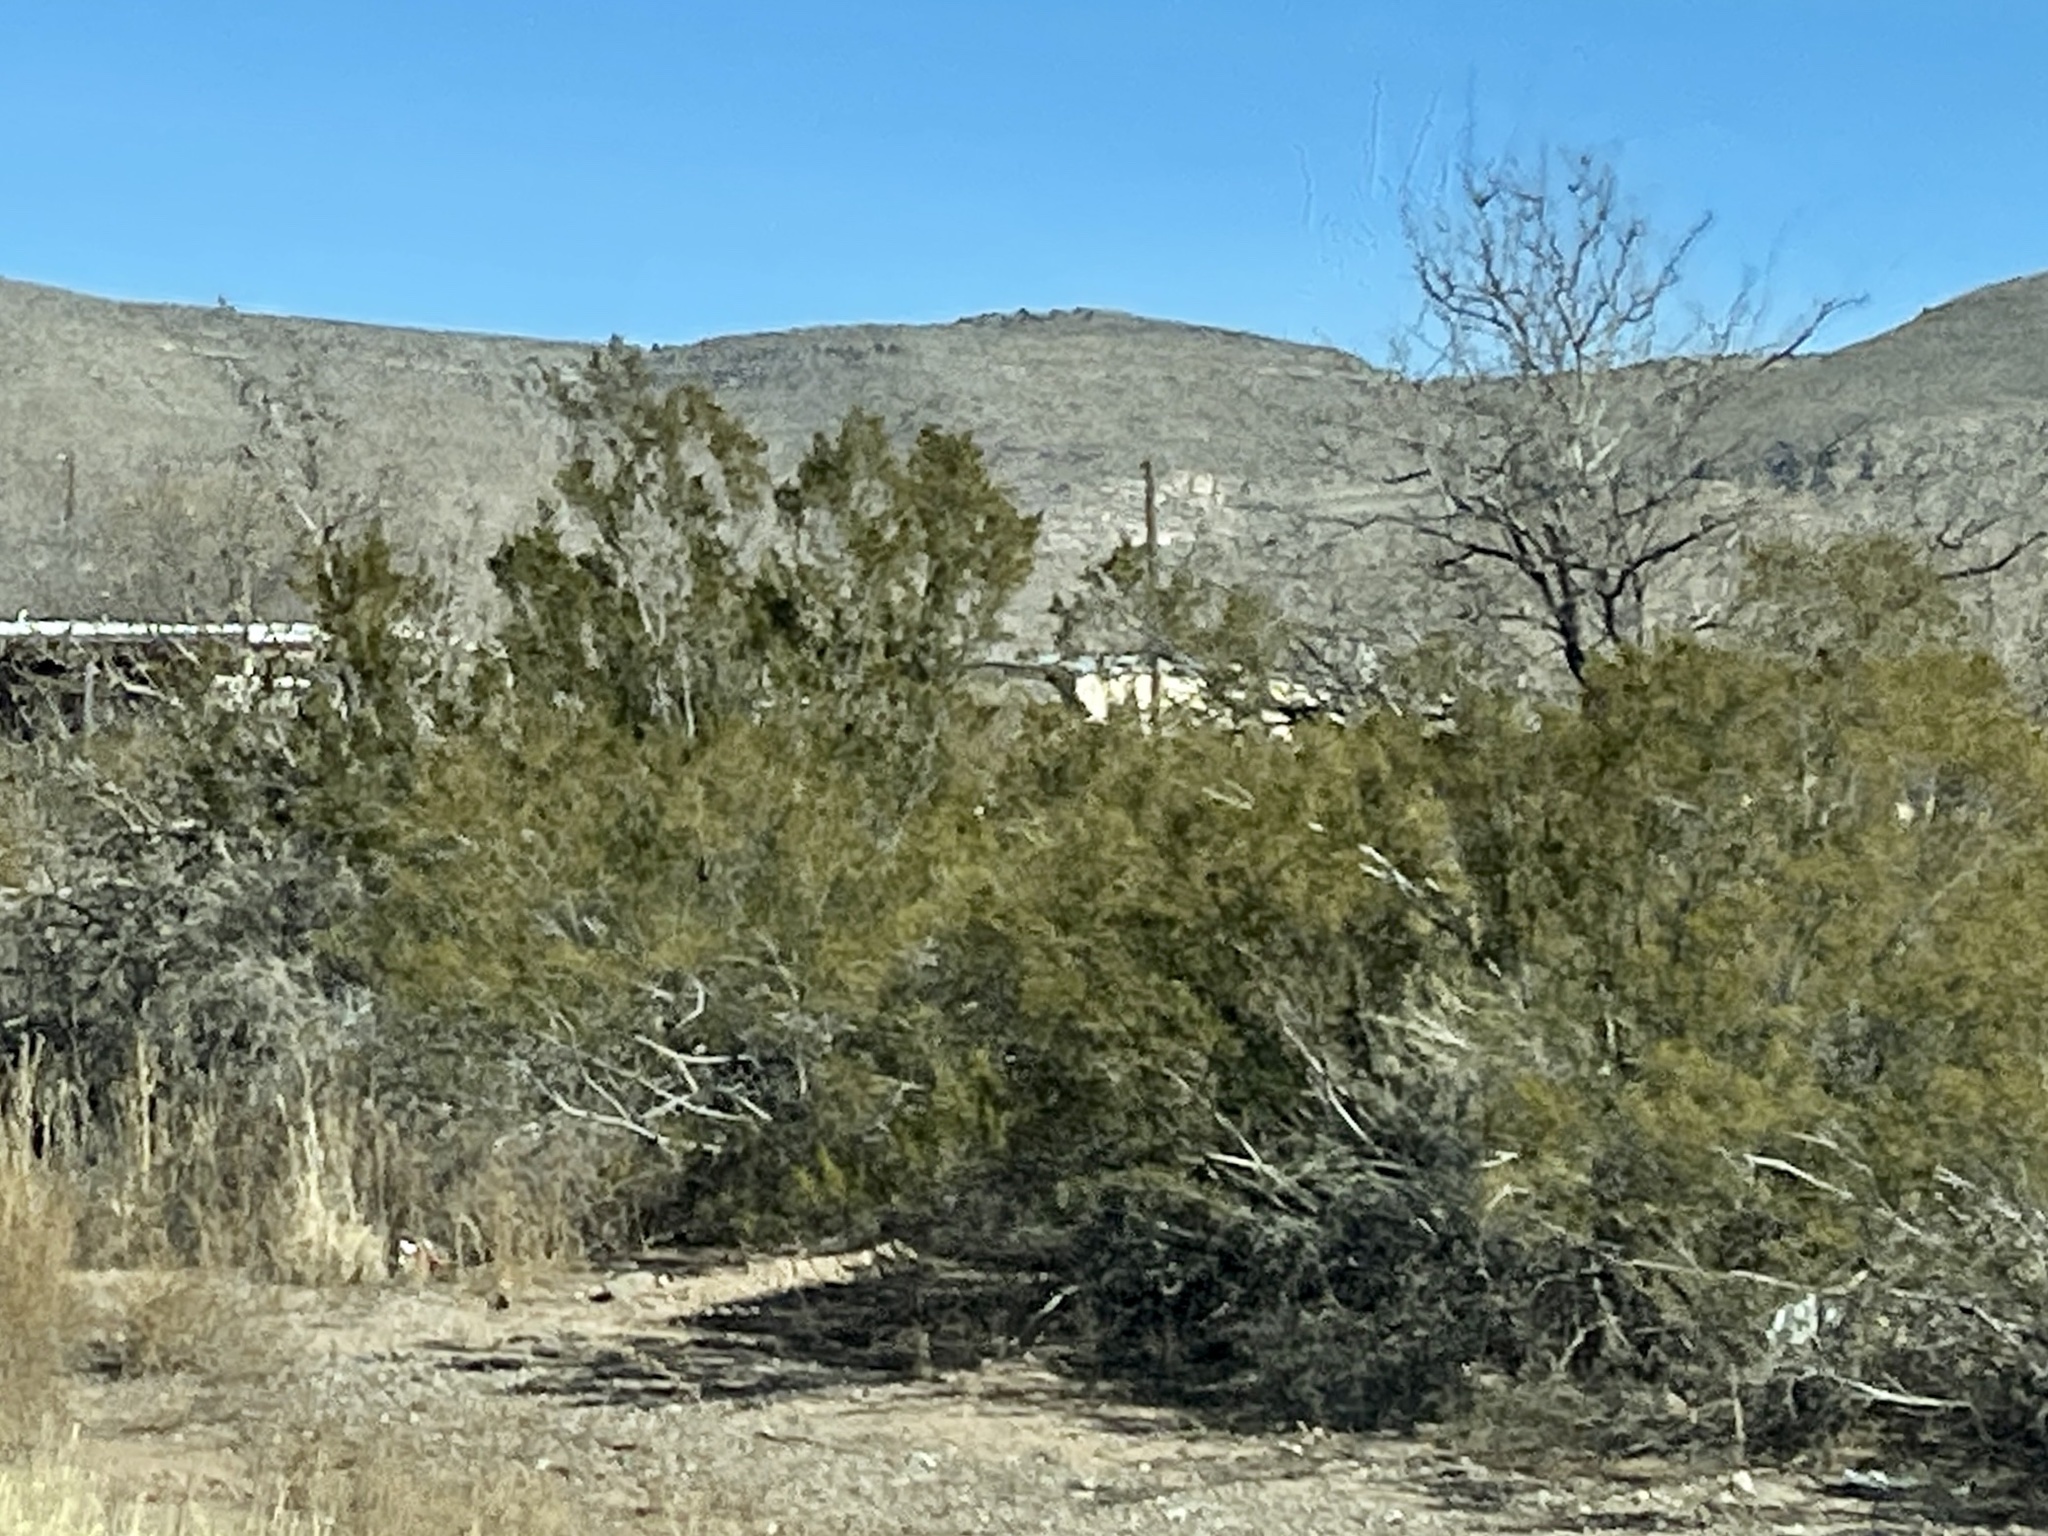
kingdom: Plantae
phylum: Tracheophyta
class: Magnoliopsida
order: Zygophyllales
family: Zygophyllaceae
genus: Larrea
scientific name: Larrea tridentata
